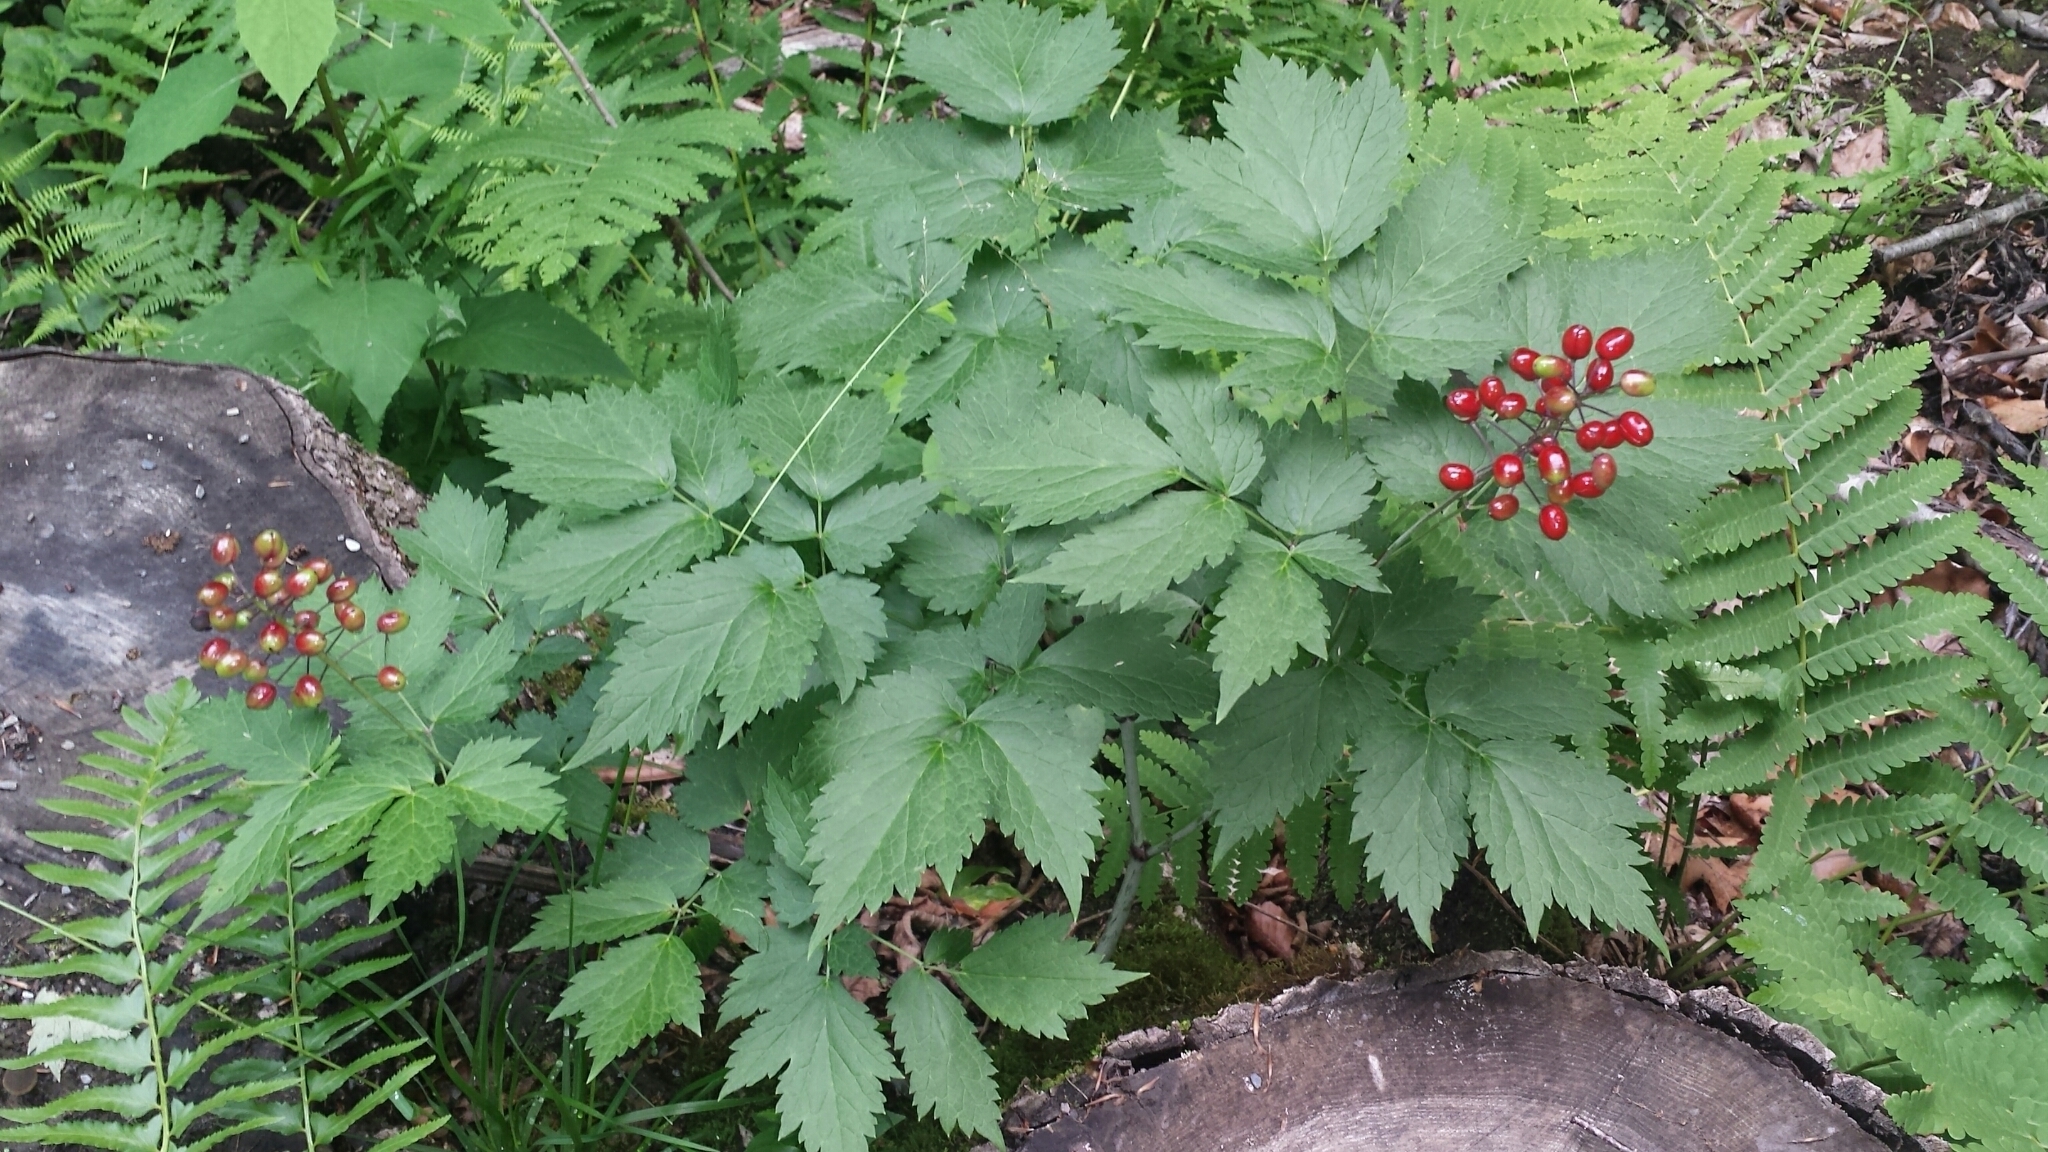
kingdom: Plantae
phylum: Tracheophyta
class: Magnoliopsida
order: Ranunculales
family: Ranunculaceae
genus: Actaea
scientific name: Actaea rubra
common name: Red baneberry
